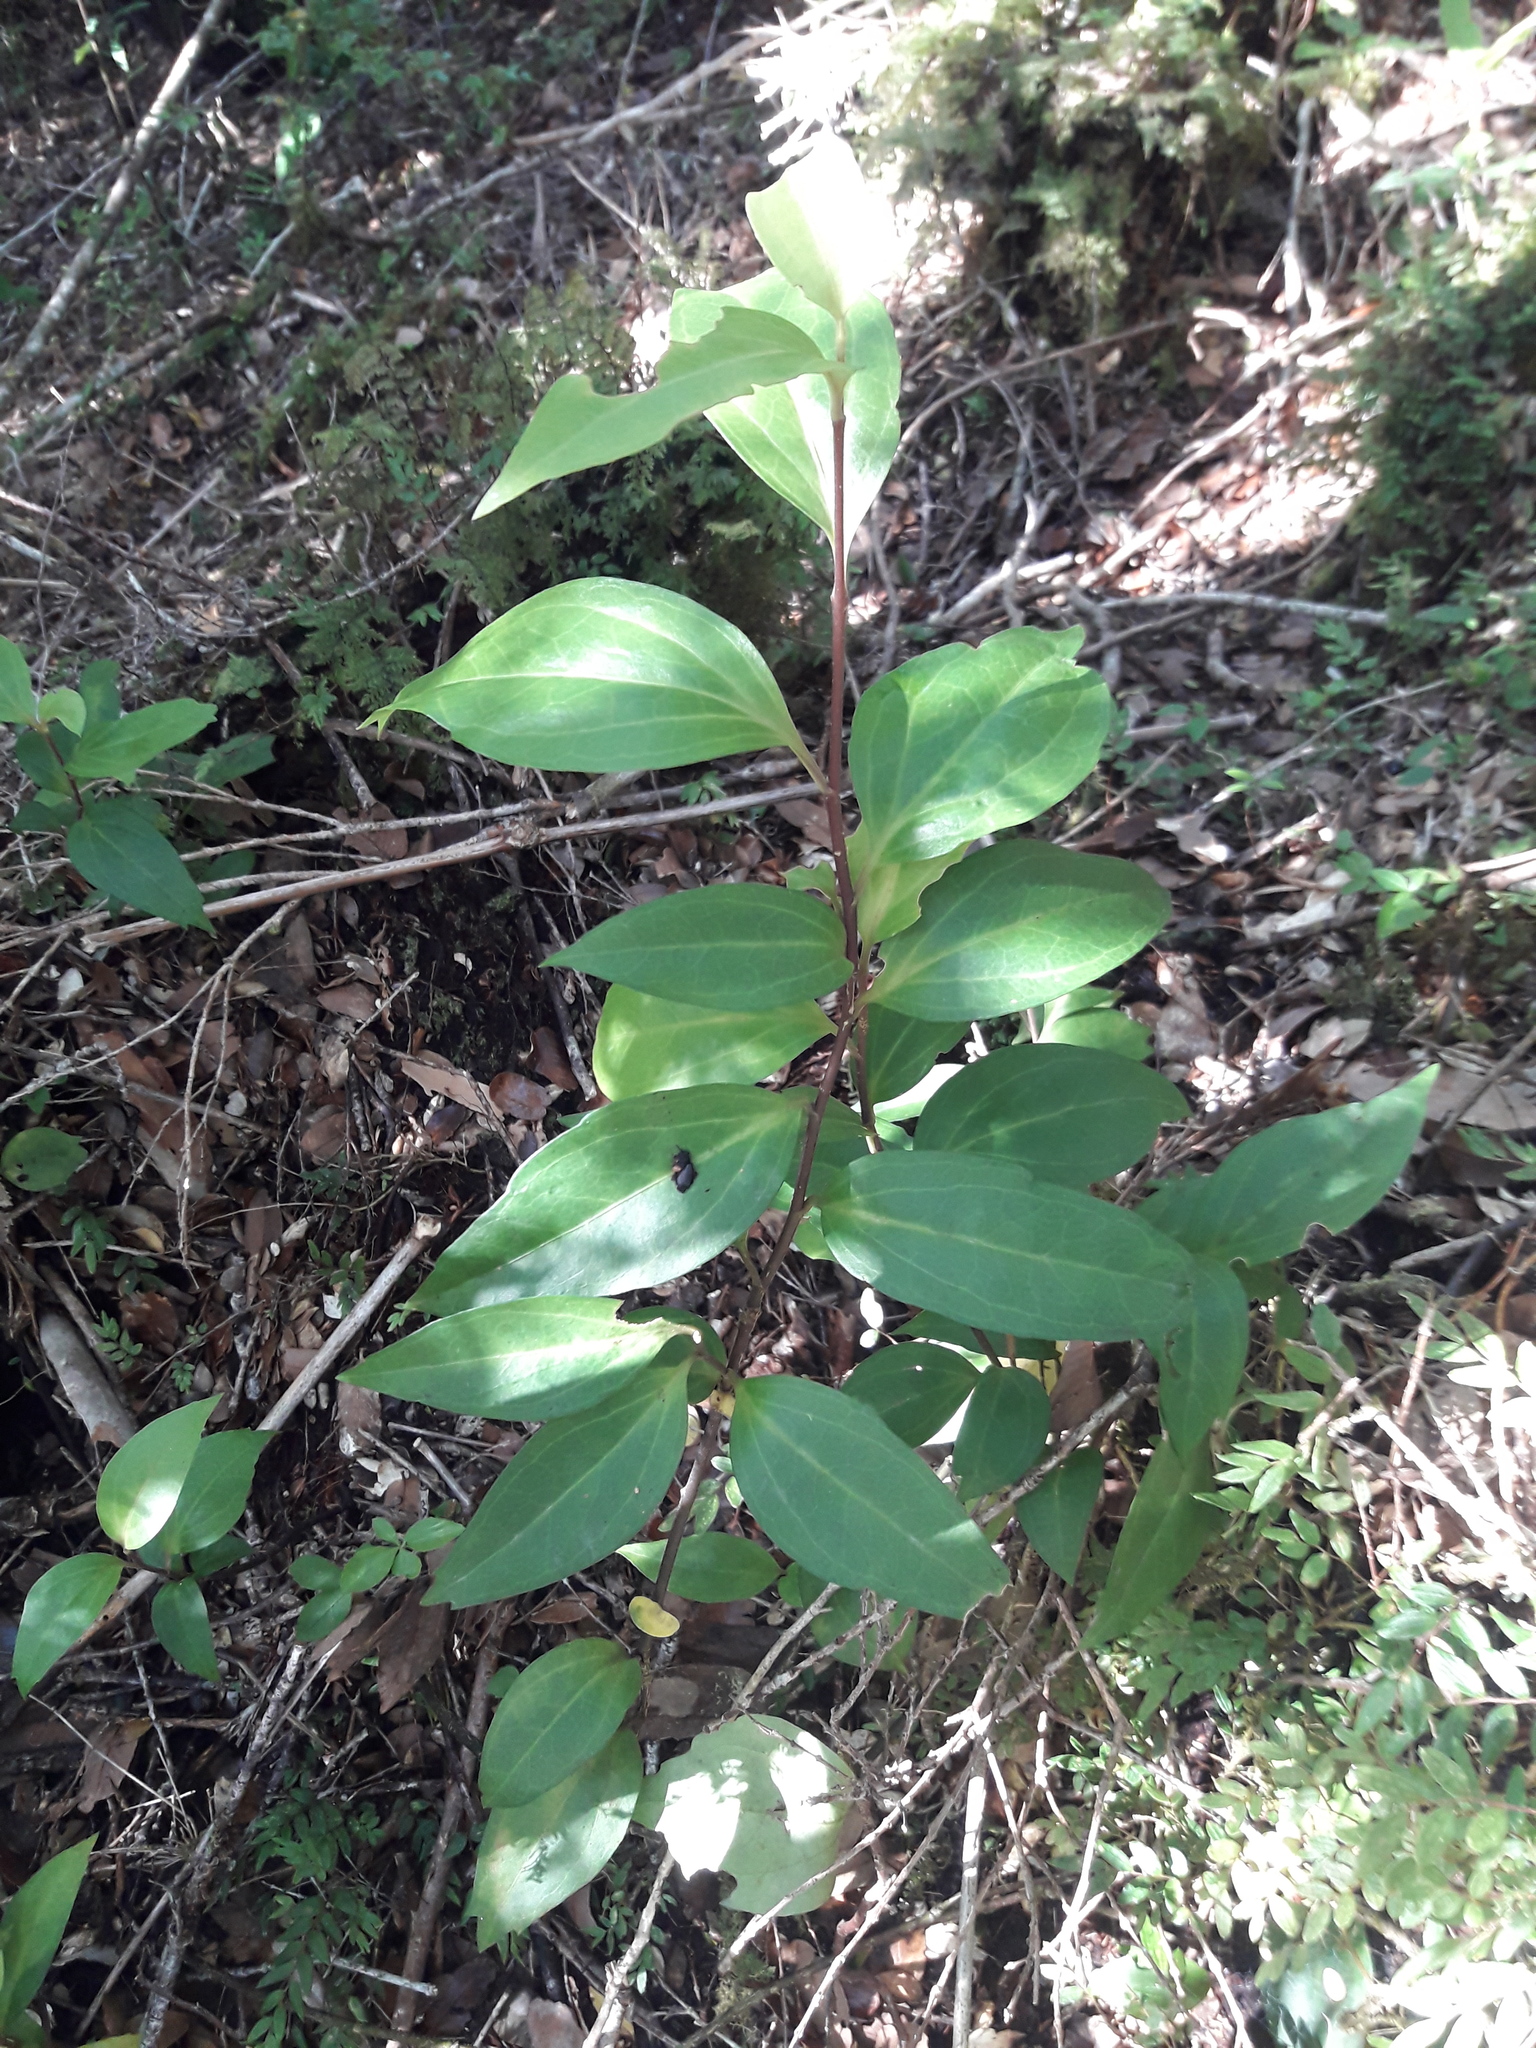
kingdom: Plantae
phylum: Tracheophyta
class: Magnoliopsida
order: Apiales
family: Griseliniaceae
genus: Griselinia
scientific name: Griselinia racemosa
